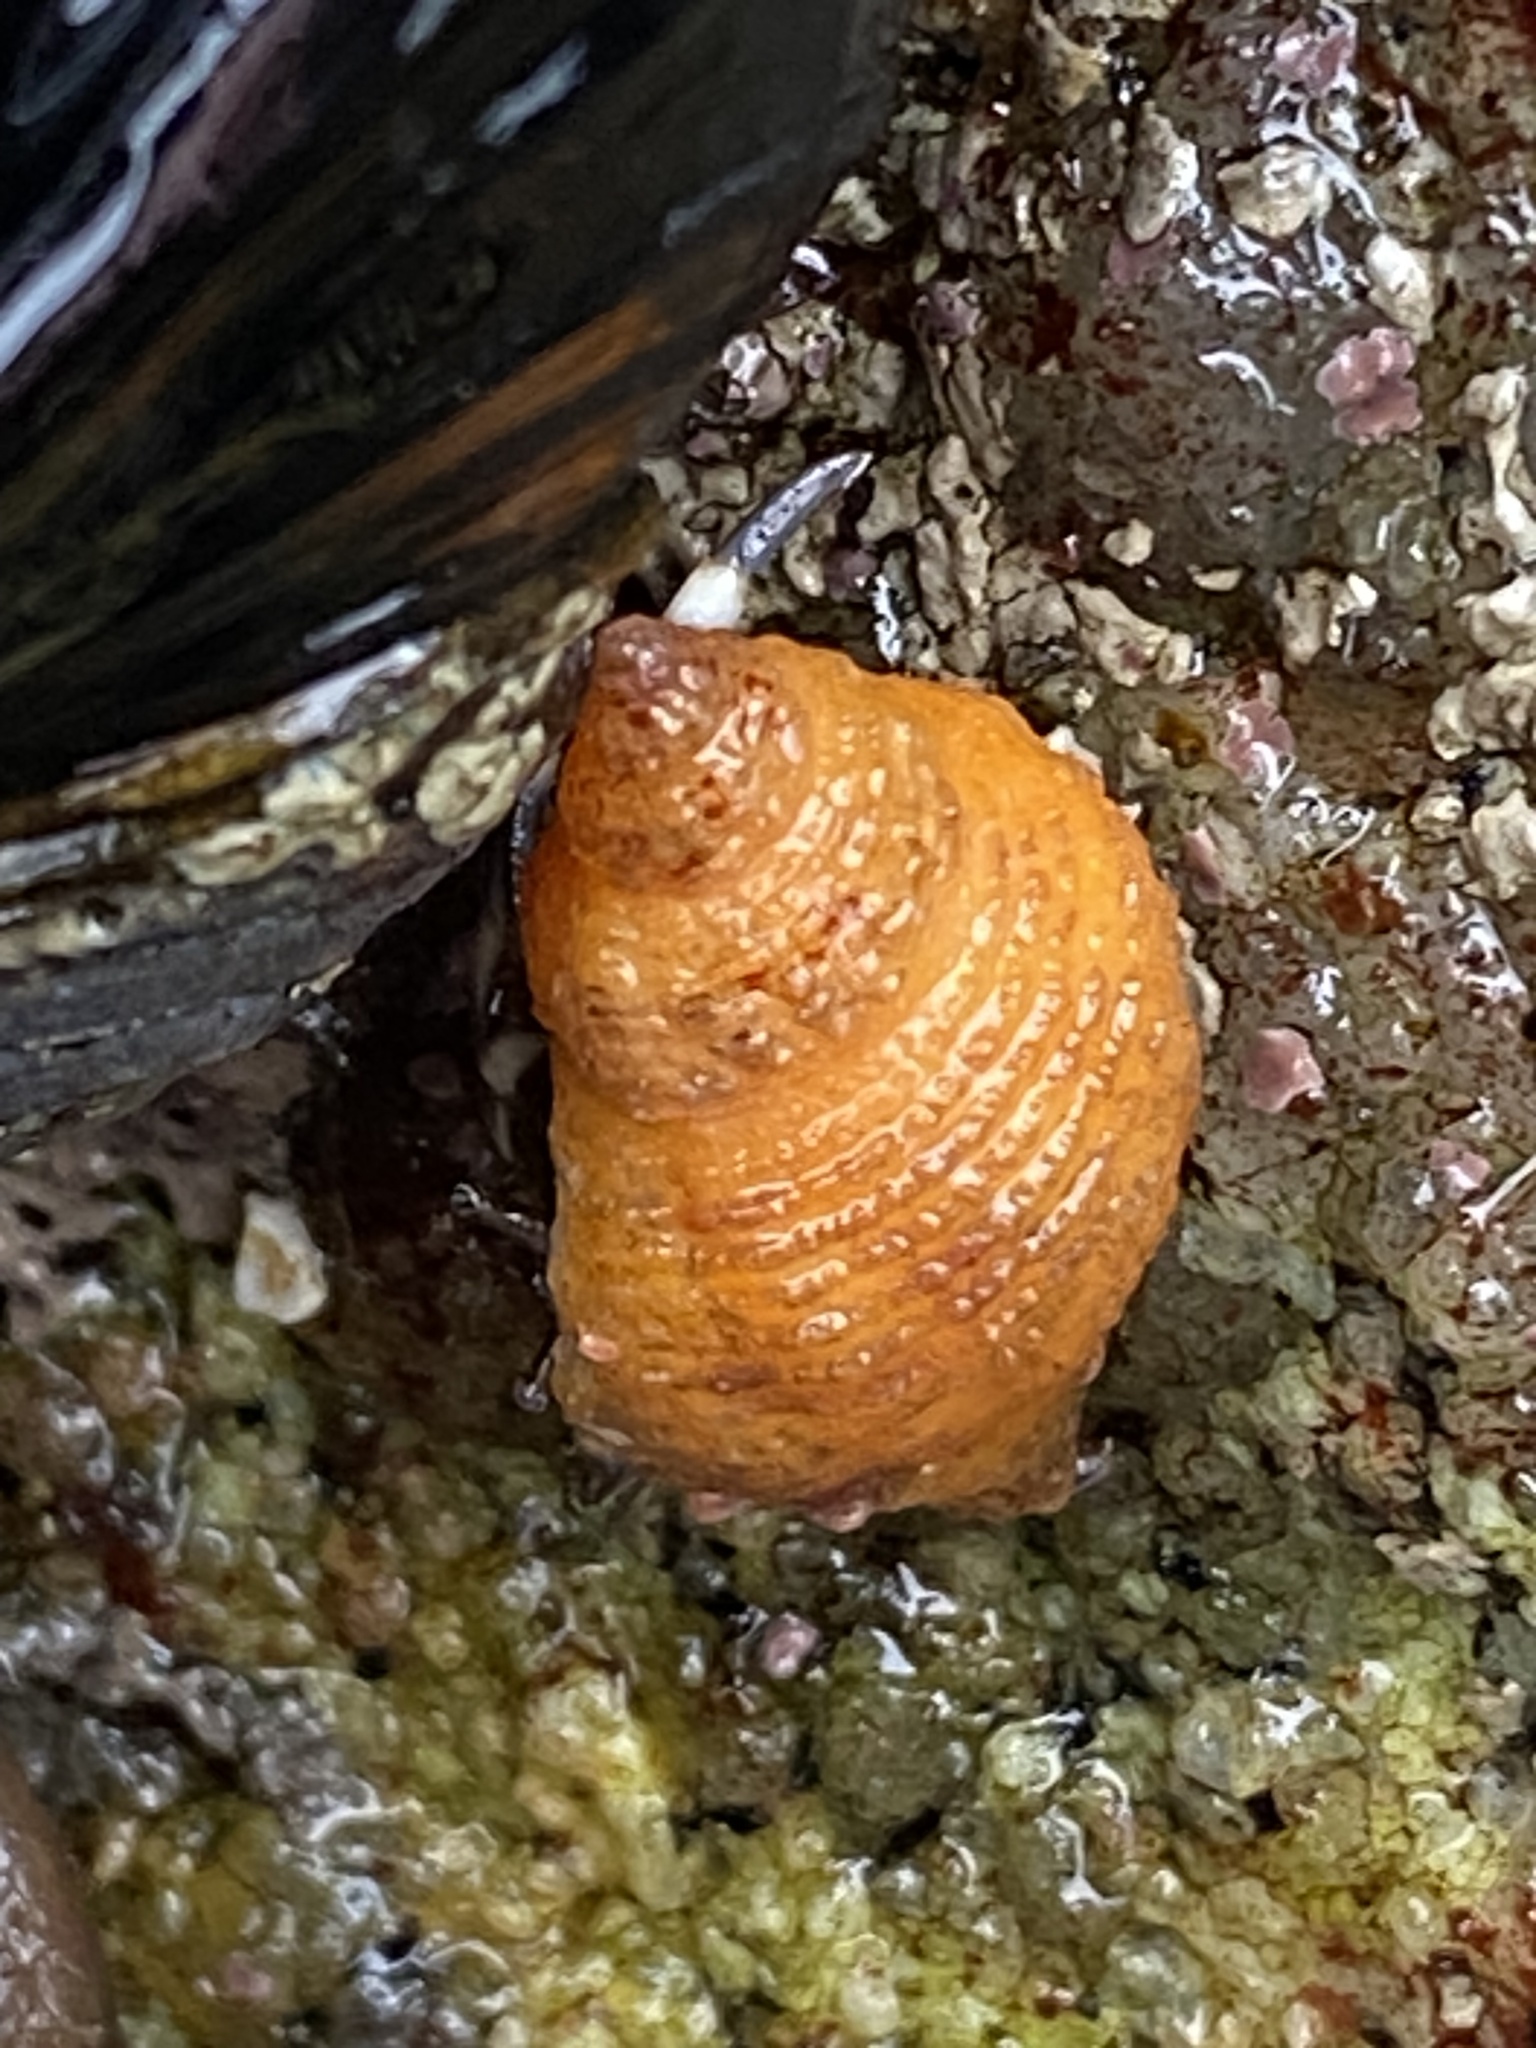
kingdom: Animalia
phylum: Mollusca
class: Gastropoda
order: Neogastropoda
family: Muricidae
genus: Paciocinebrina
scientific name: Paciocinebrina lurida
